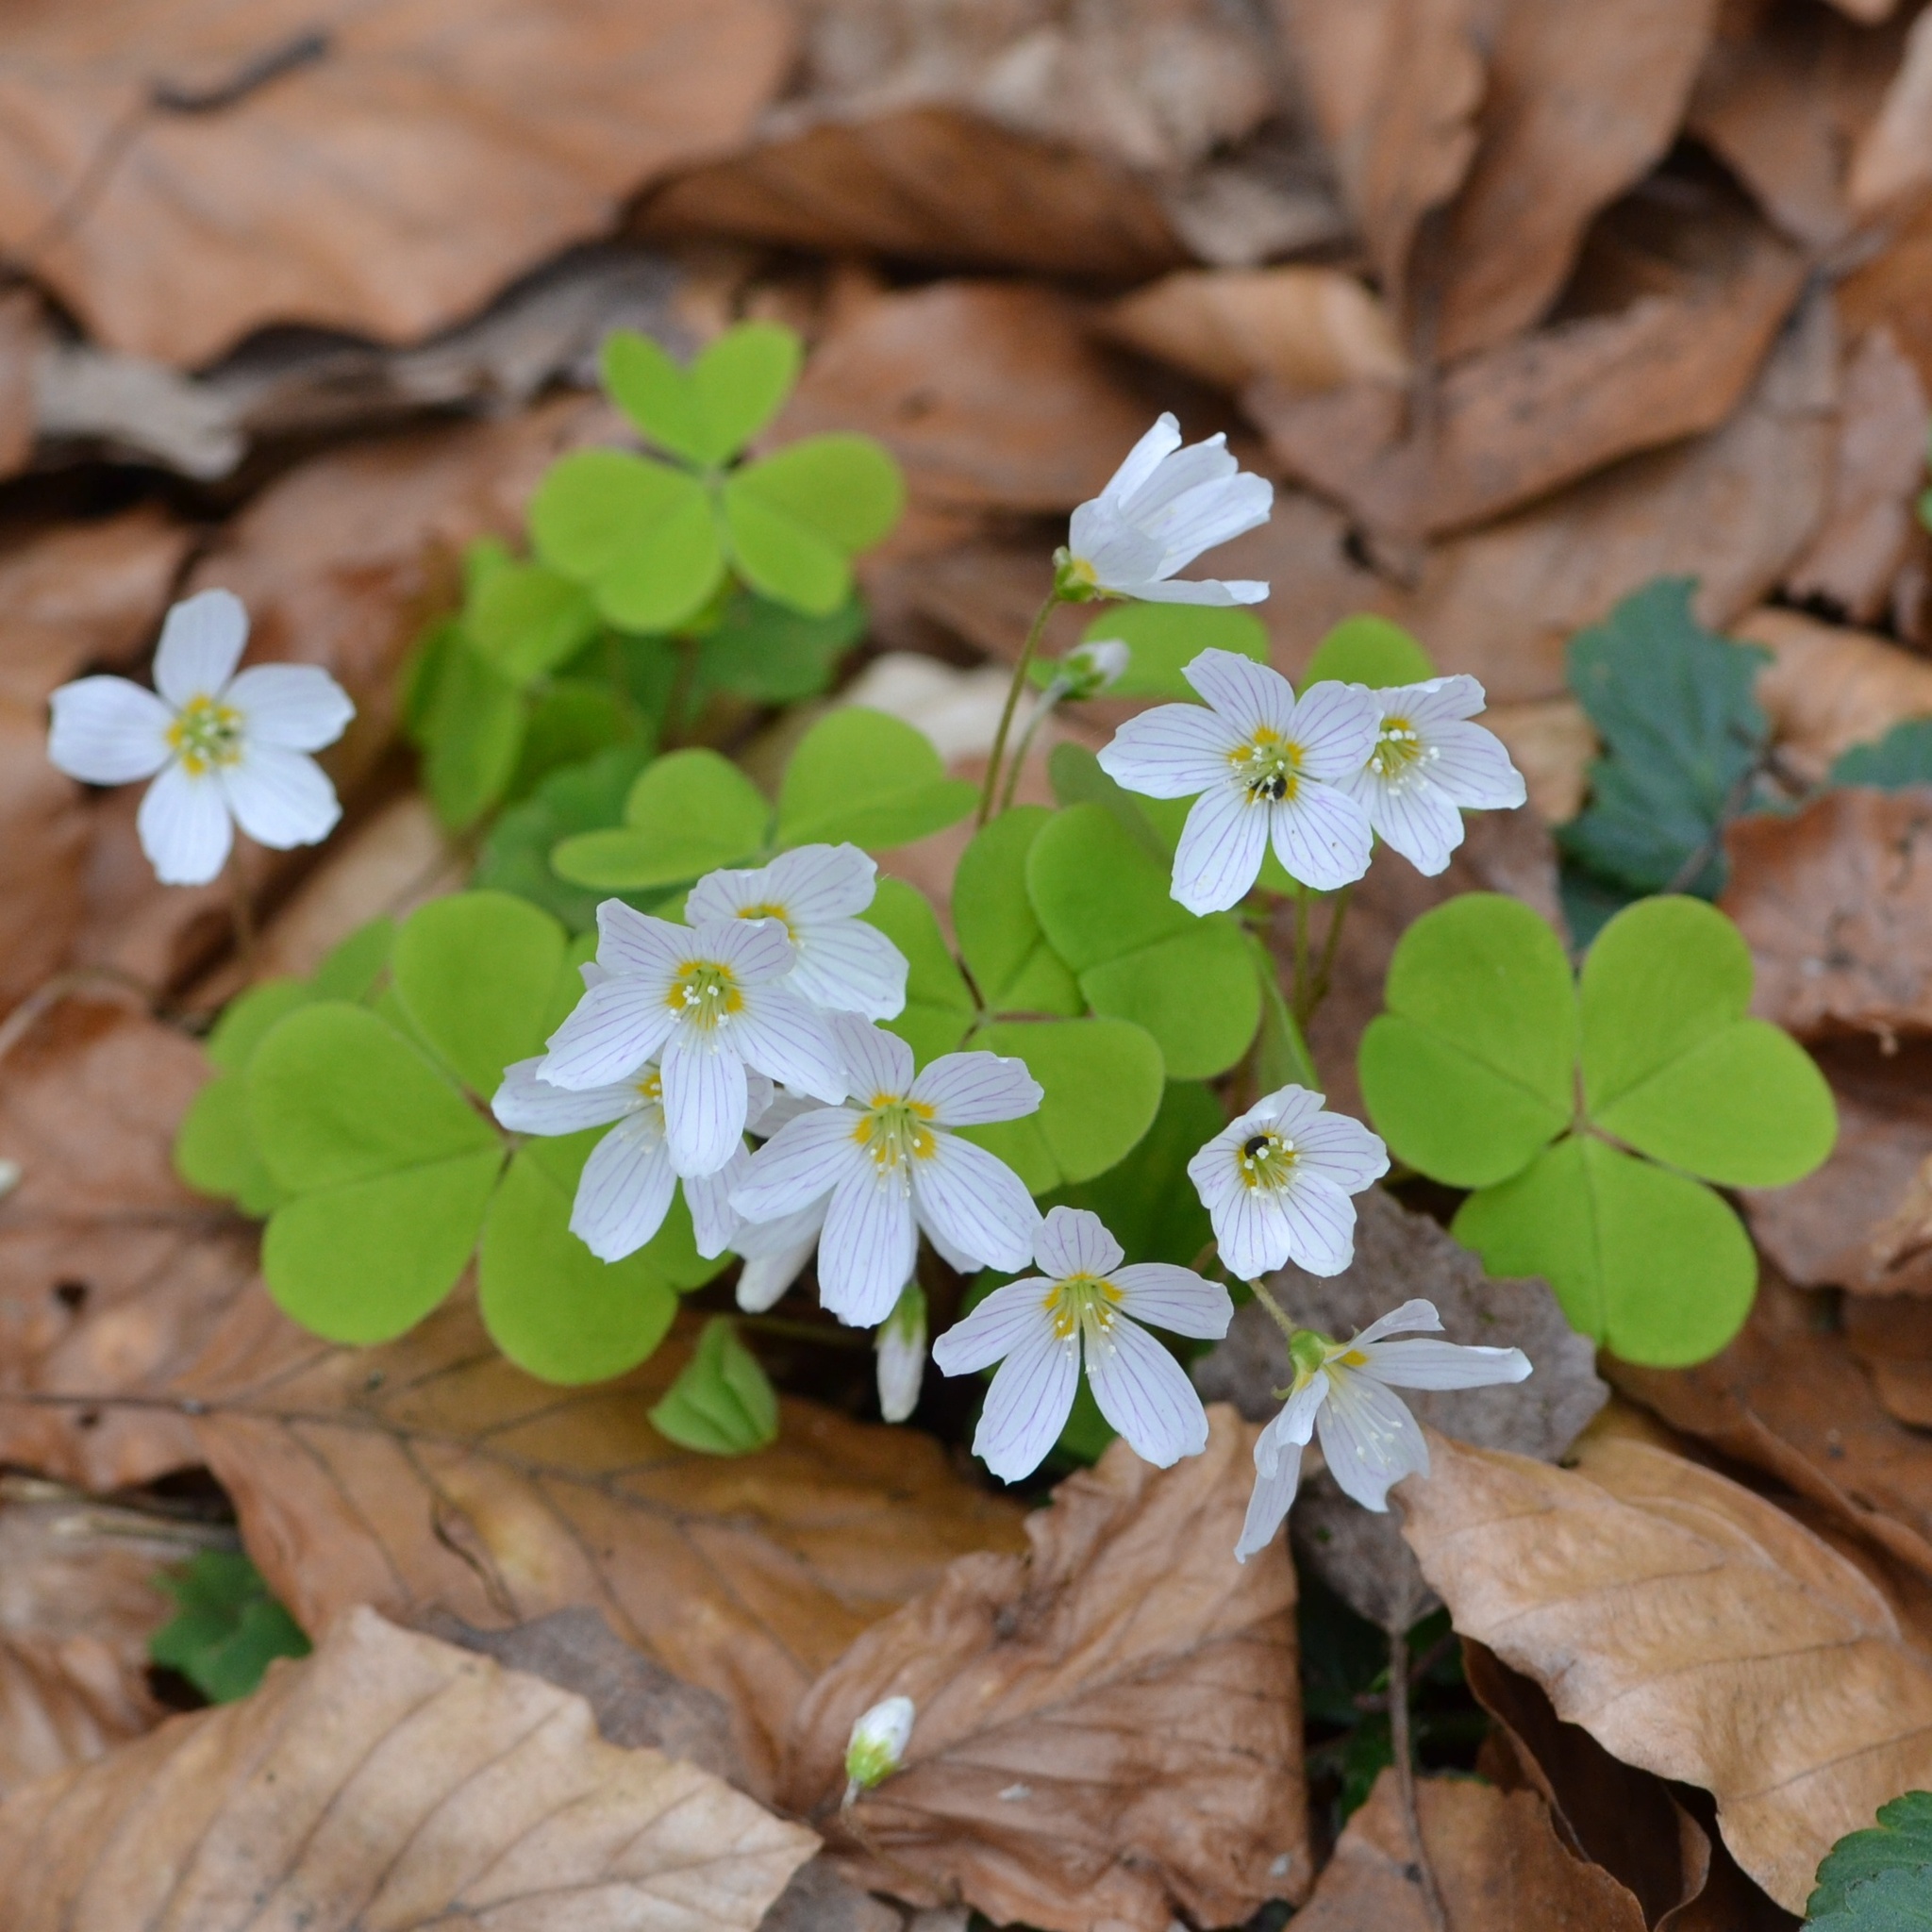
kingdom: Plantae
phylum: Tracheophyta
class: Magnoliopsida
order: Oxalidales
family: Oxalidaceae
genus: Oxalis
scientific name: Oxalis acetosella
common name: Wood-sorrel
